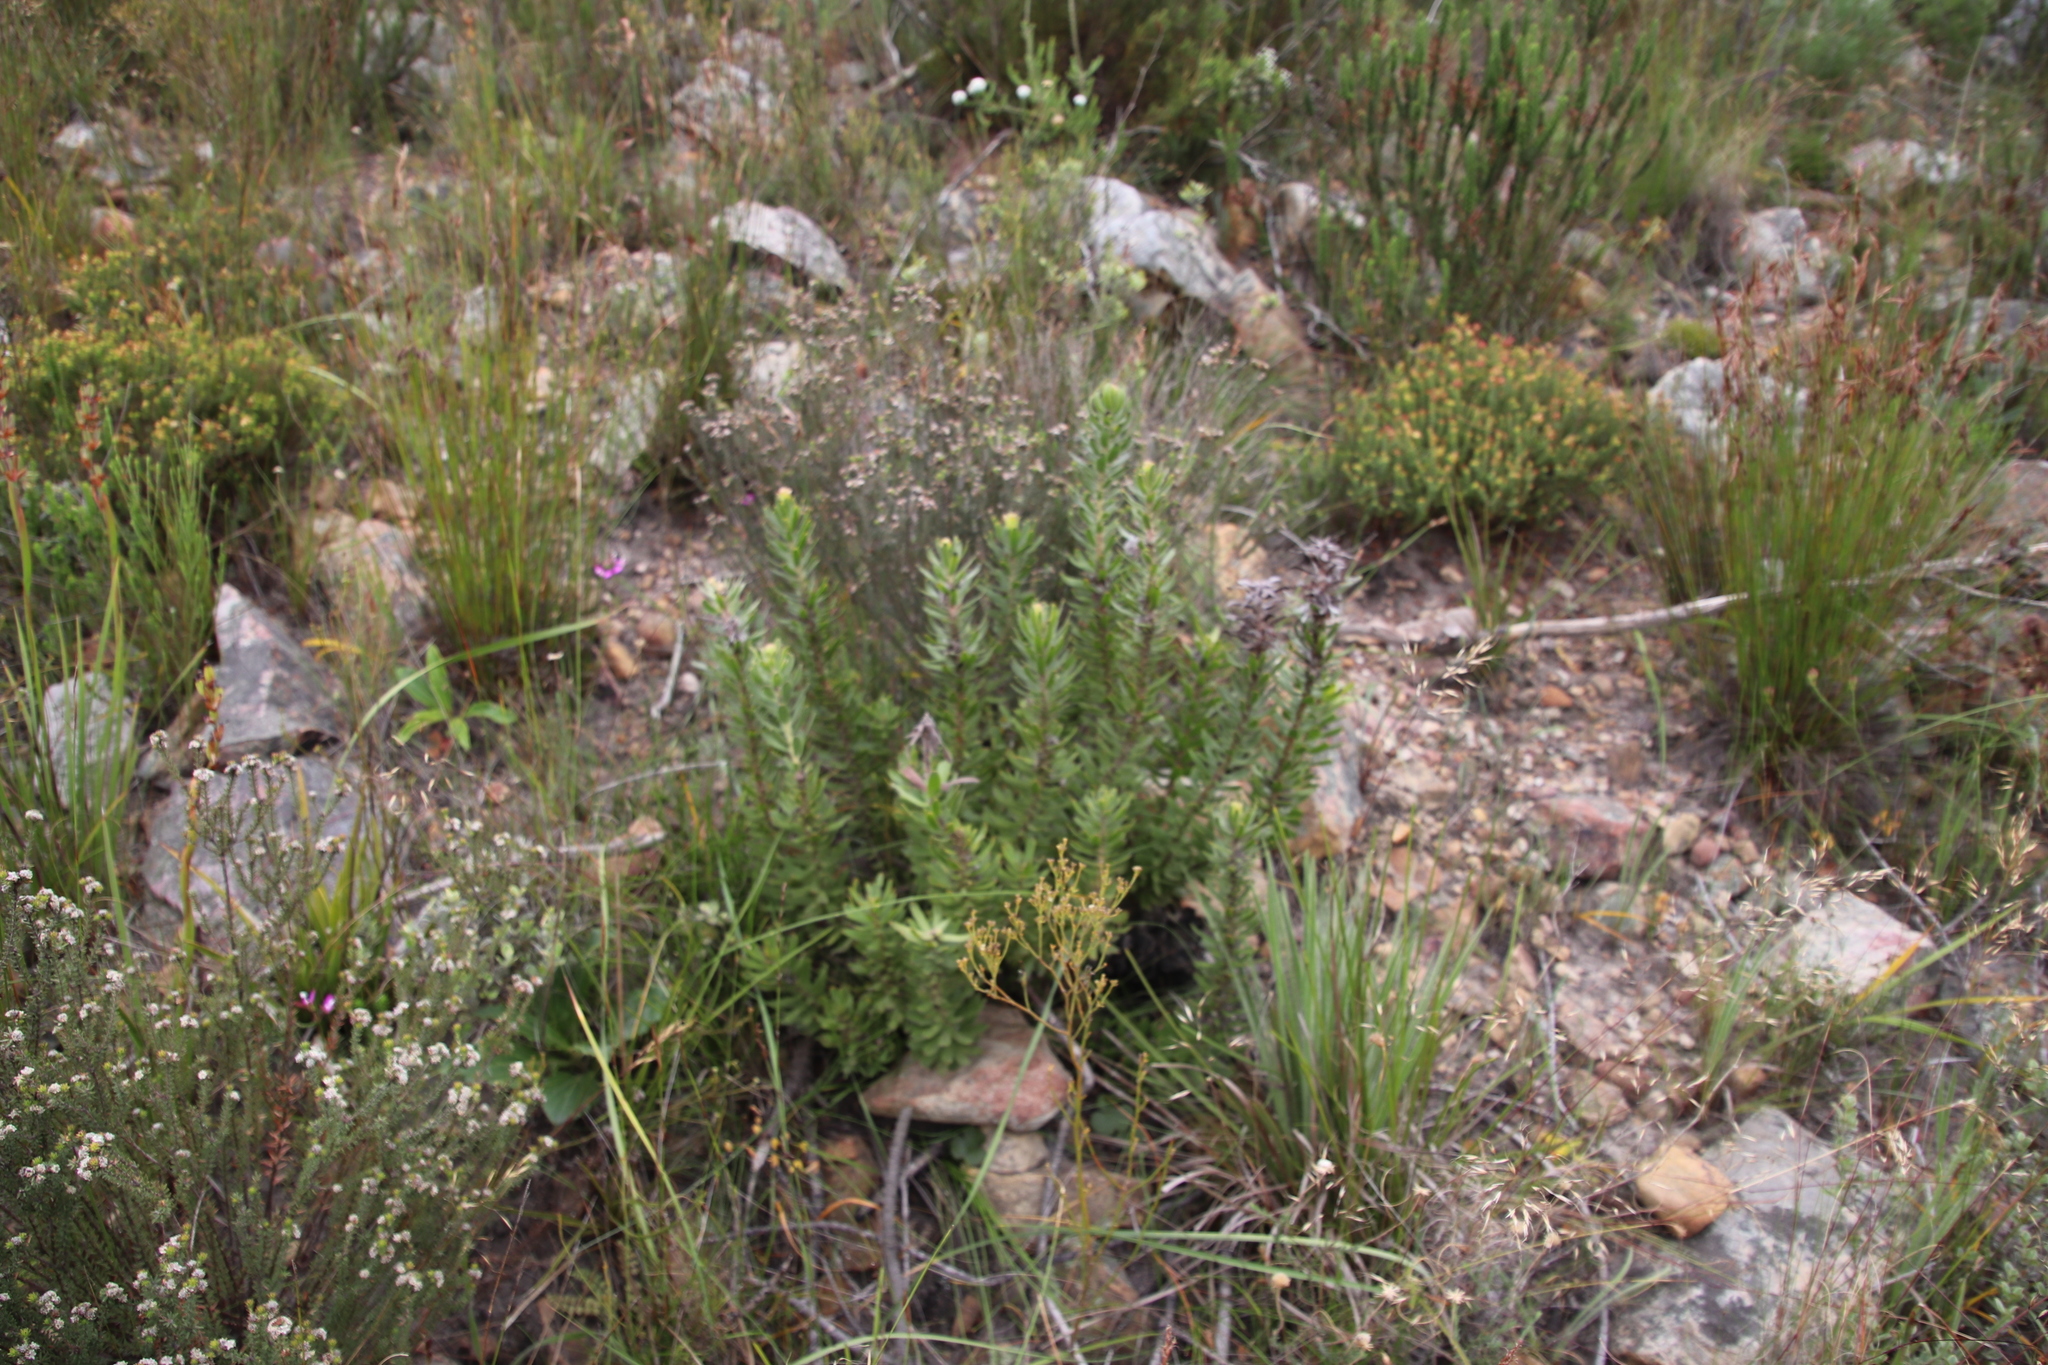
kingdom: Plantae
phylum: Tracheophyta
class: Magnoliopsida
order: Proteales
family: Proteaceae
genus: Mimetes
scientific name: Mimetes cucullatus
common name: Common pagoda
